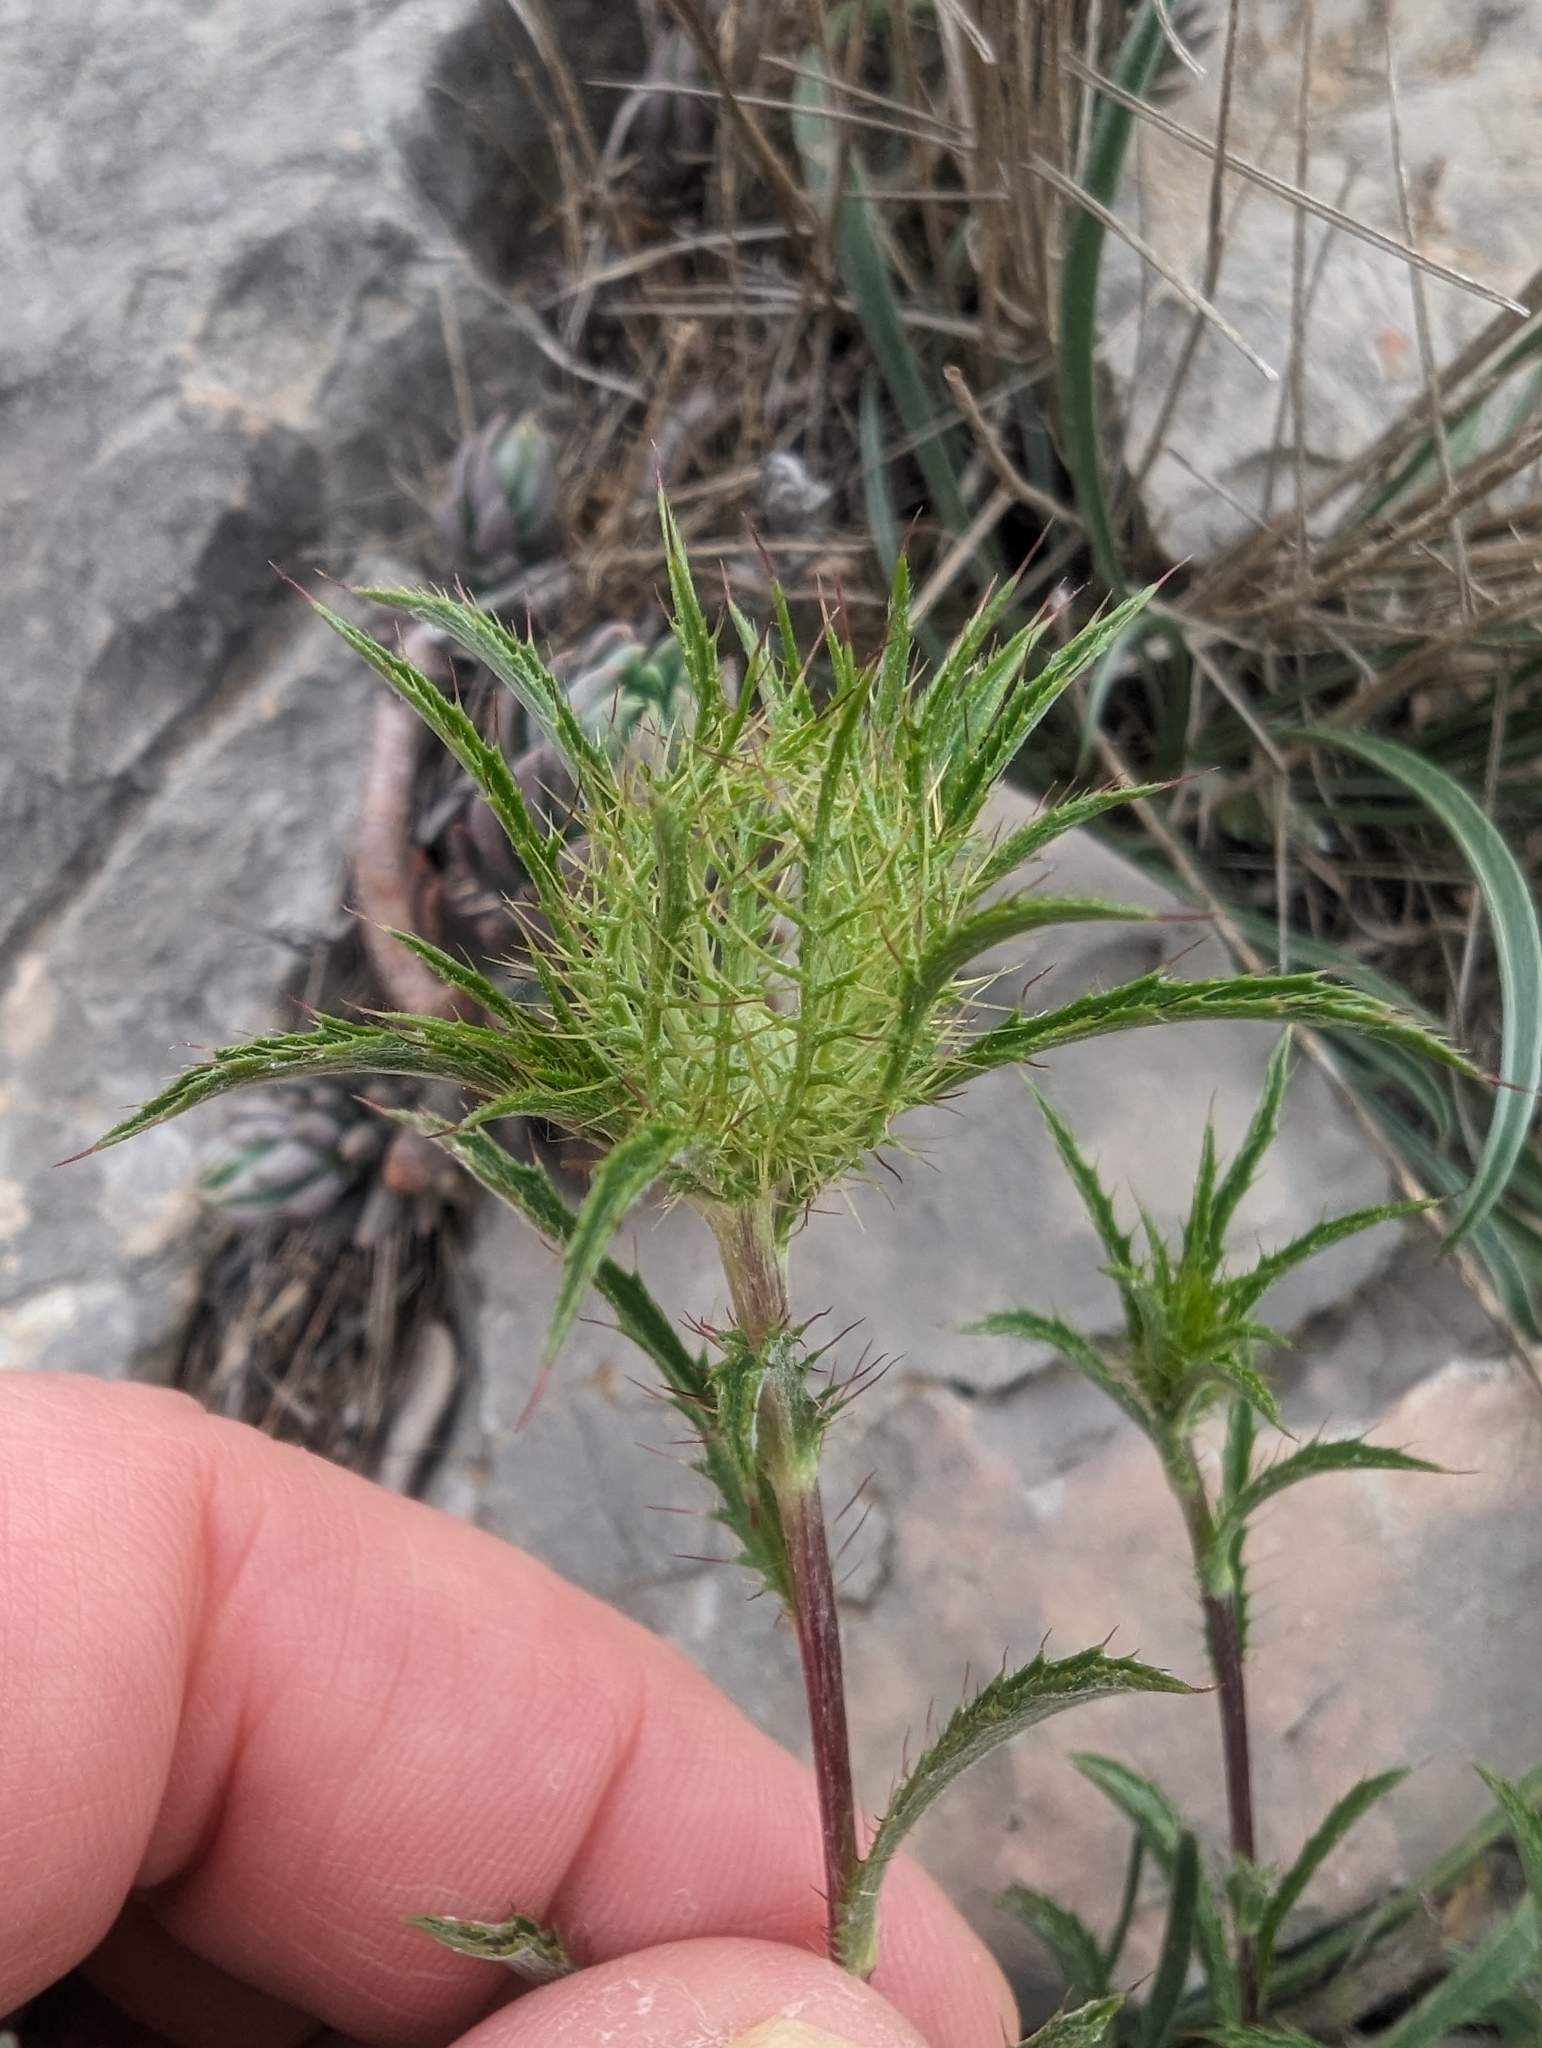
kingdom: Plantae
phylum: Tracheophyta
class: Magnoliopsida
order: Asterales
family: Asteraceae
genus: Atractylis
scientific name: Atractylis cancellata
